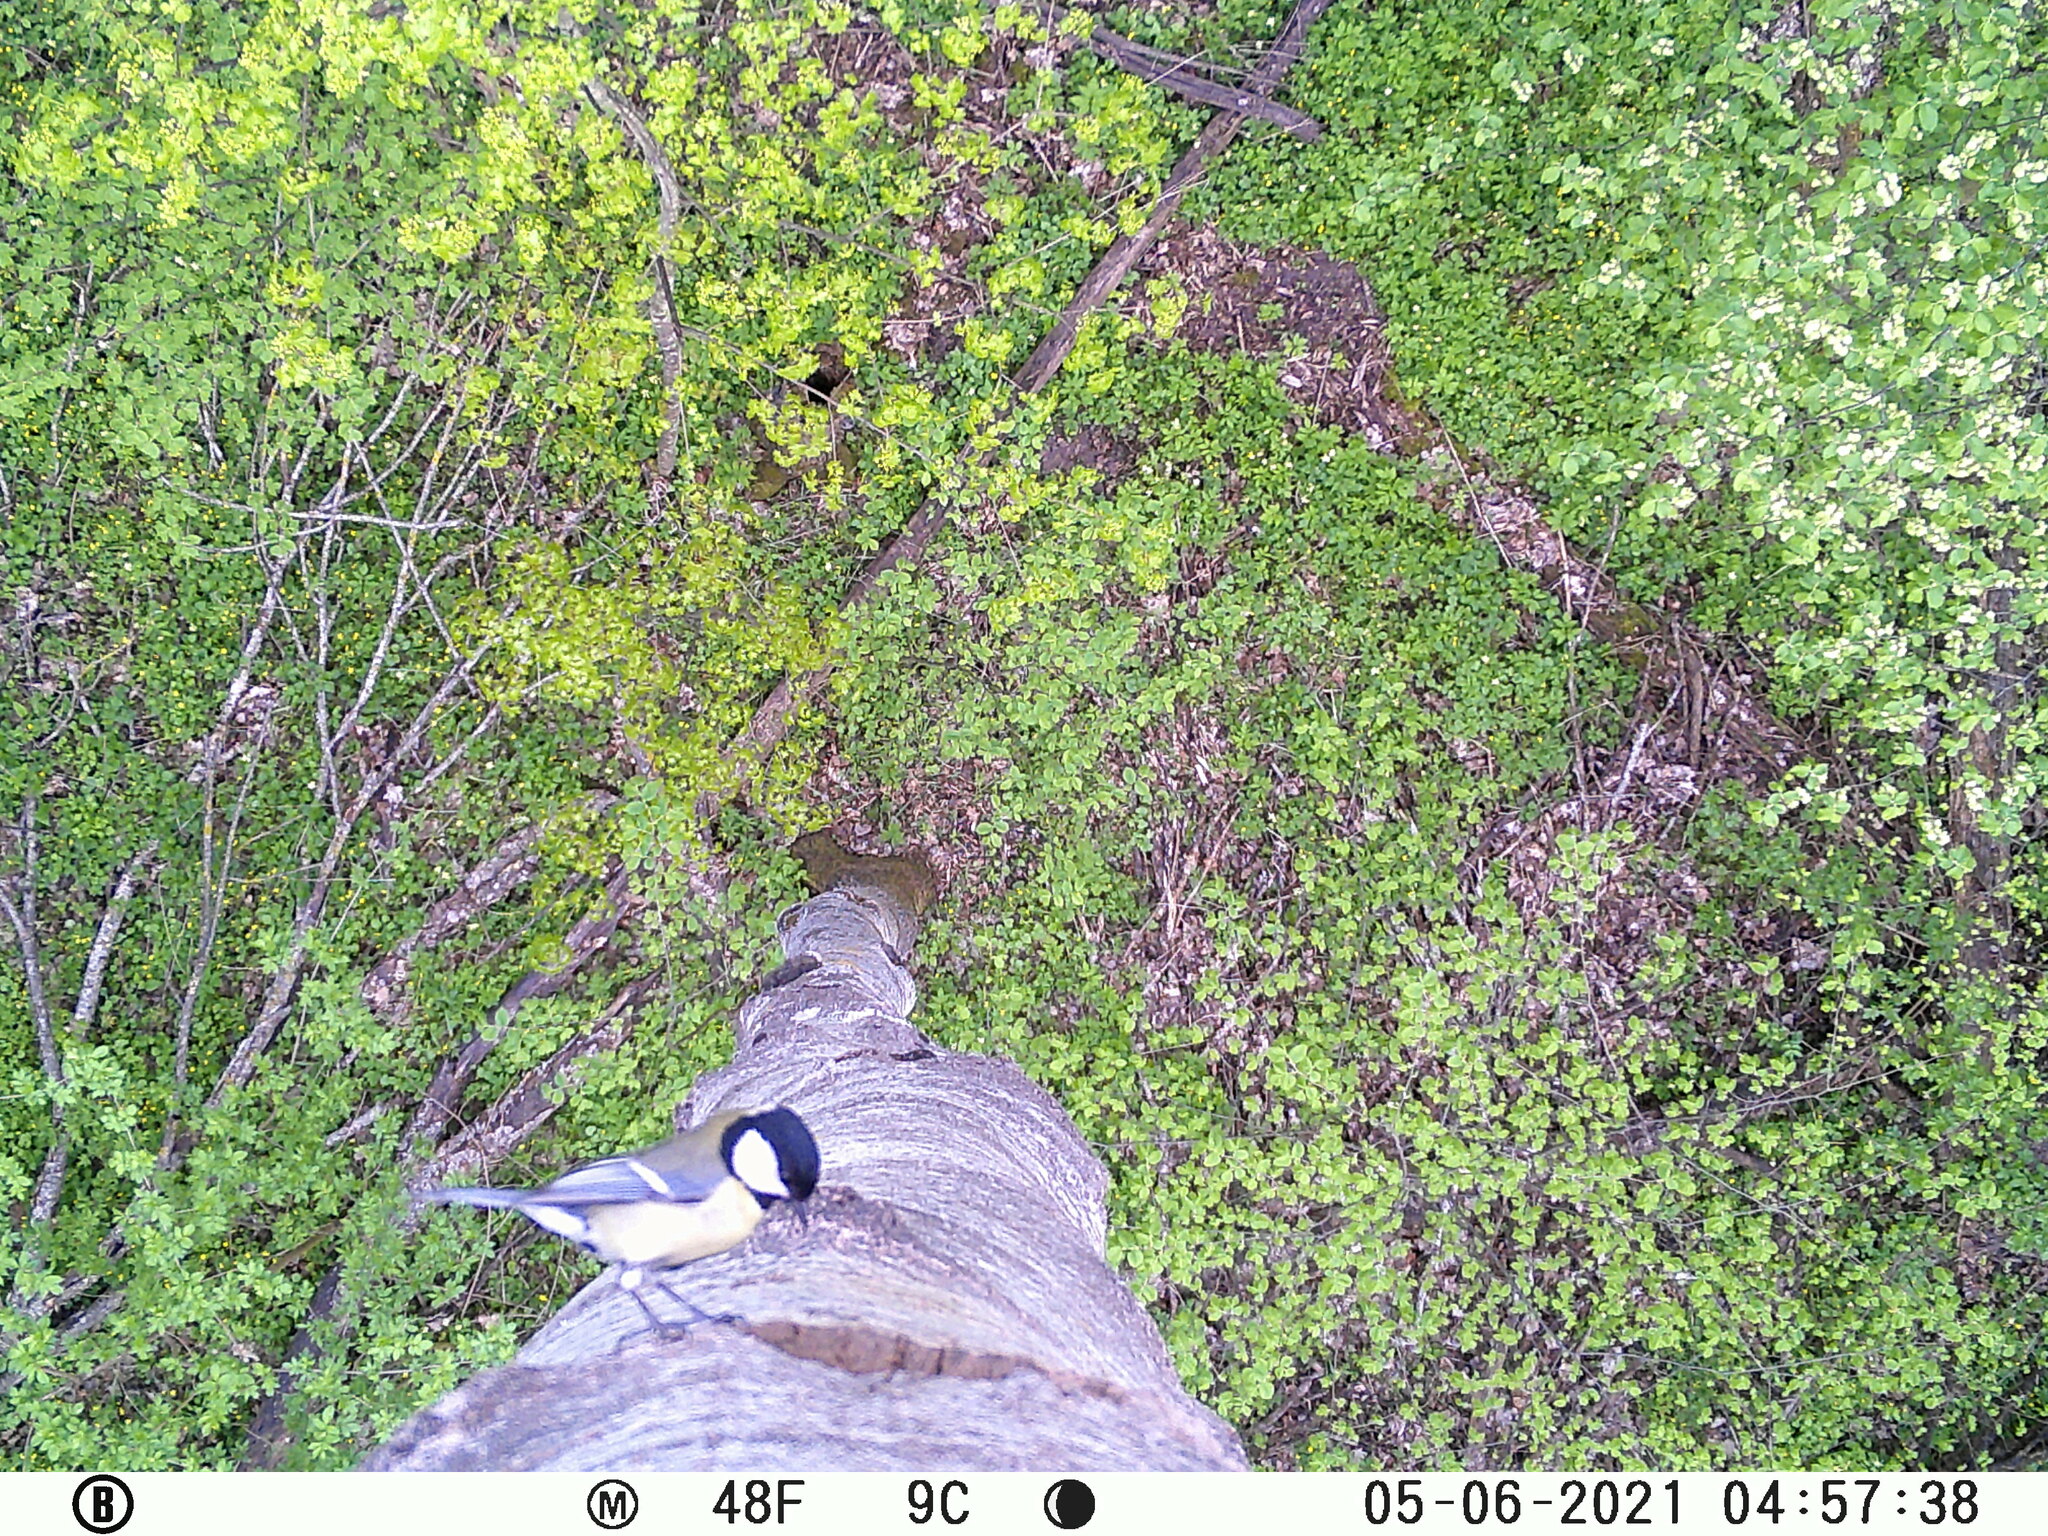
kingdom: Animalia
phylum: Chordata
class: Aves
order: Passeriformes
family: Paridae
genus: Parus
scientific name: Parus major
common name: Great tit
